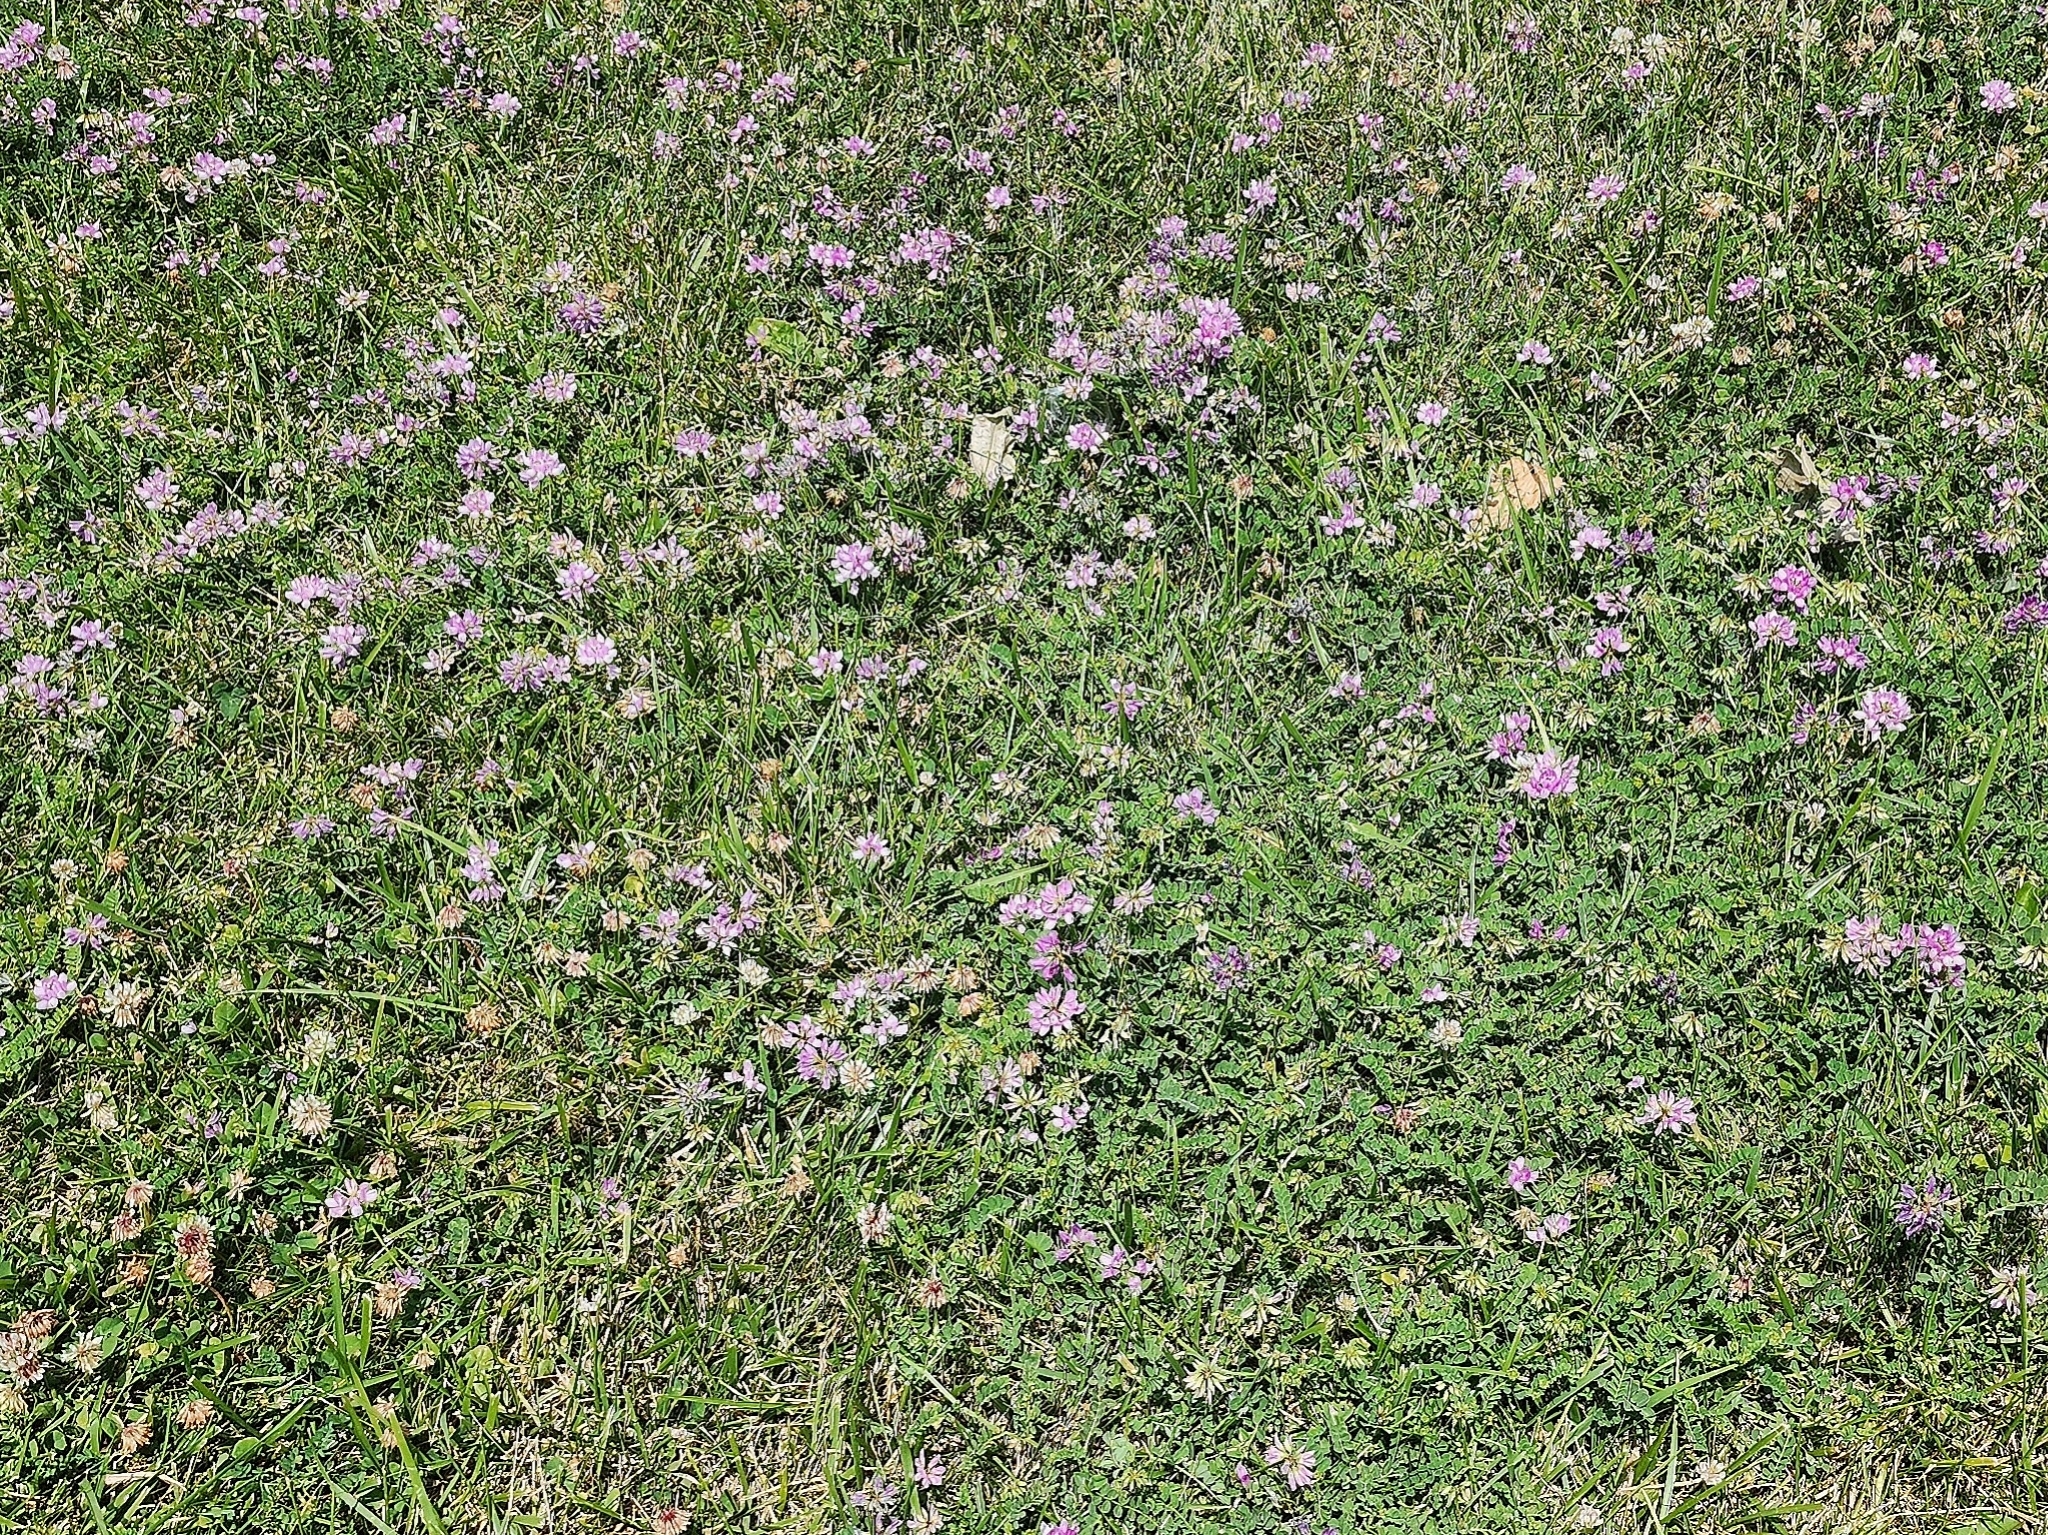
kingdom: Plantae
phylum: Tracheophyta
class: Magnoliopsida
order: Fabales
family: Fabaceae
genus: Coronilla
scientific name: Coronilla varia
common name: Crownvetch
